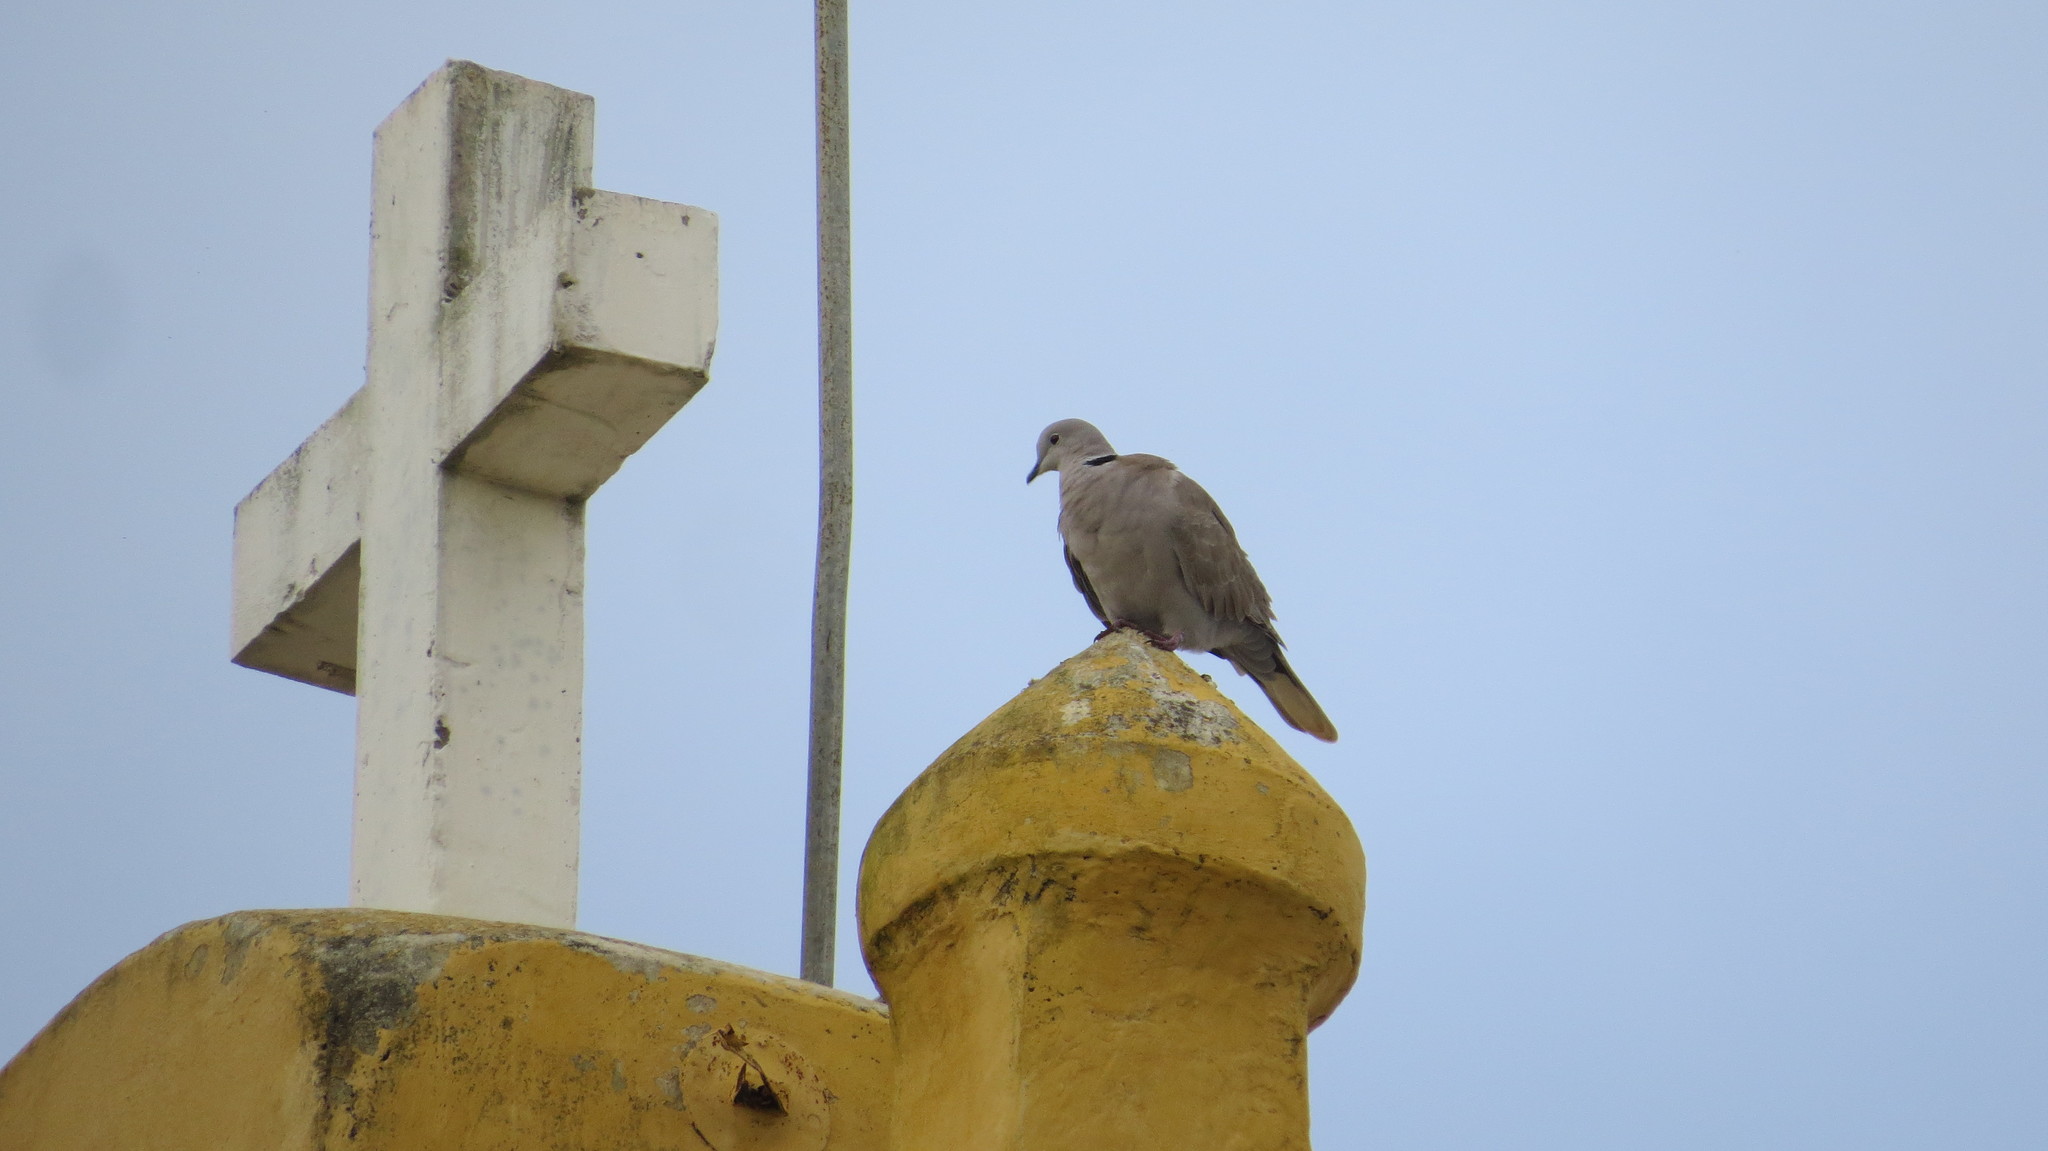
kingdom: Animalia
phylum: Chordata
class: Aves
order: Columbiformes
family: Columbidae
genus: Streptopelia
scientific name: Streptopelia decaocto
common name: Eurasian collared dove
